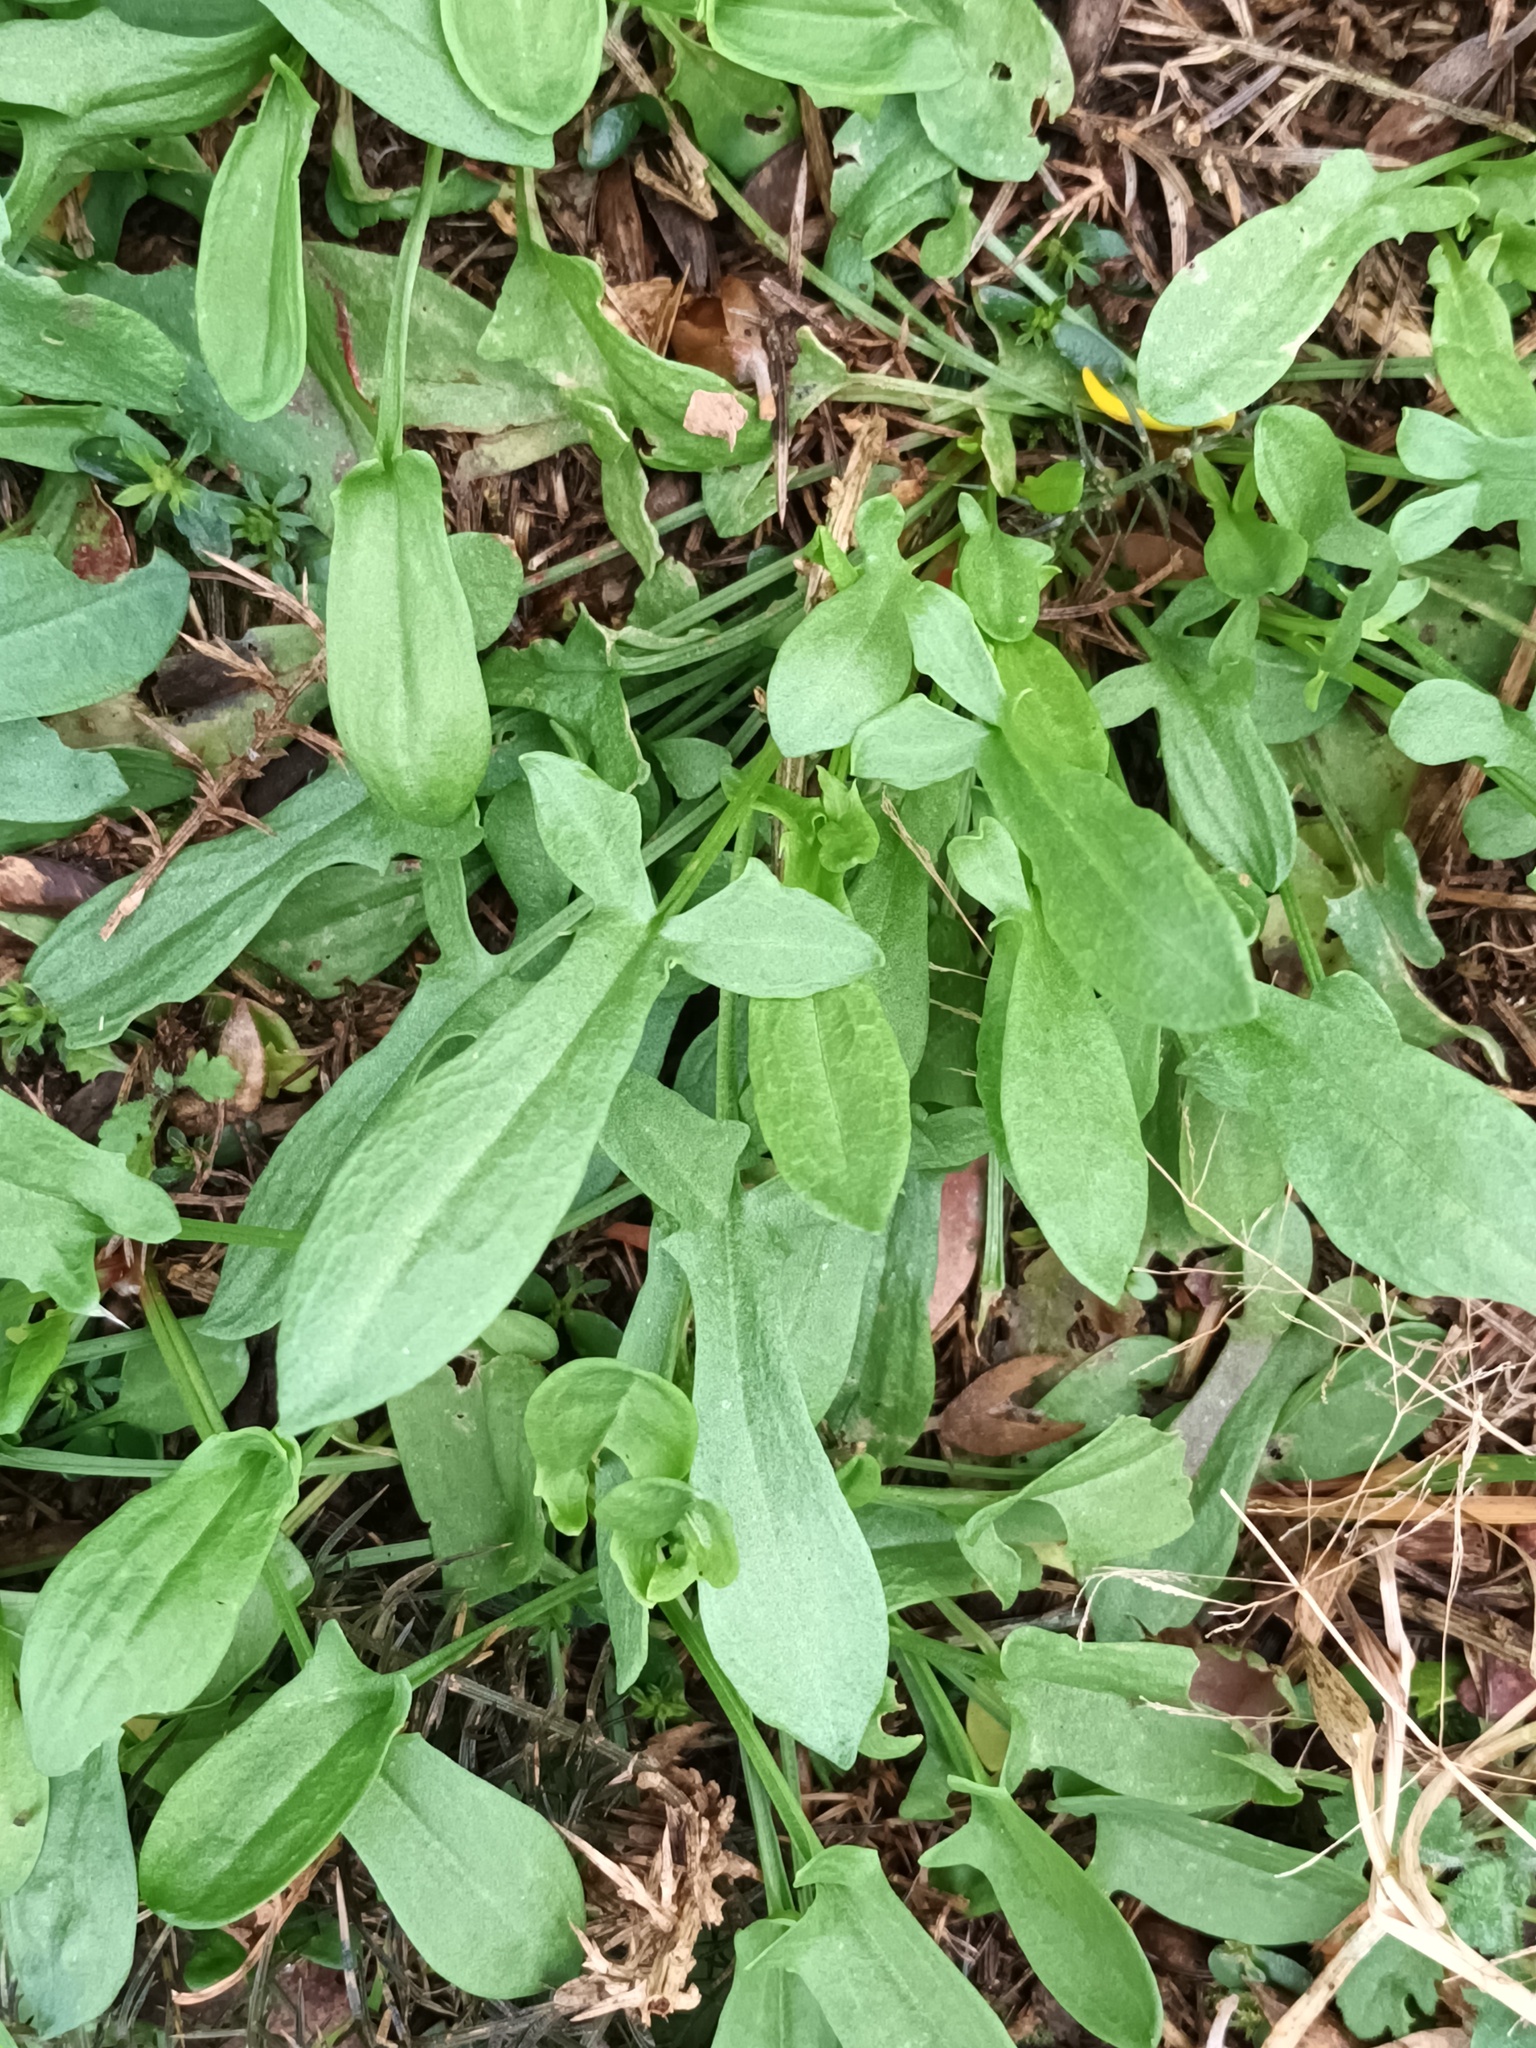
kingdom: Plantae
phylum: Tracheophyta
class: Magnoliopsida
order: Caryophyllales
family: Polygonaceae
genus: Rumex
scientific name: Rumex acetosella
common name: Common sheep sorrel
